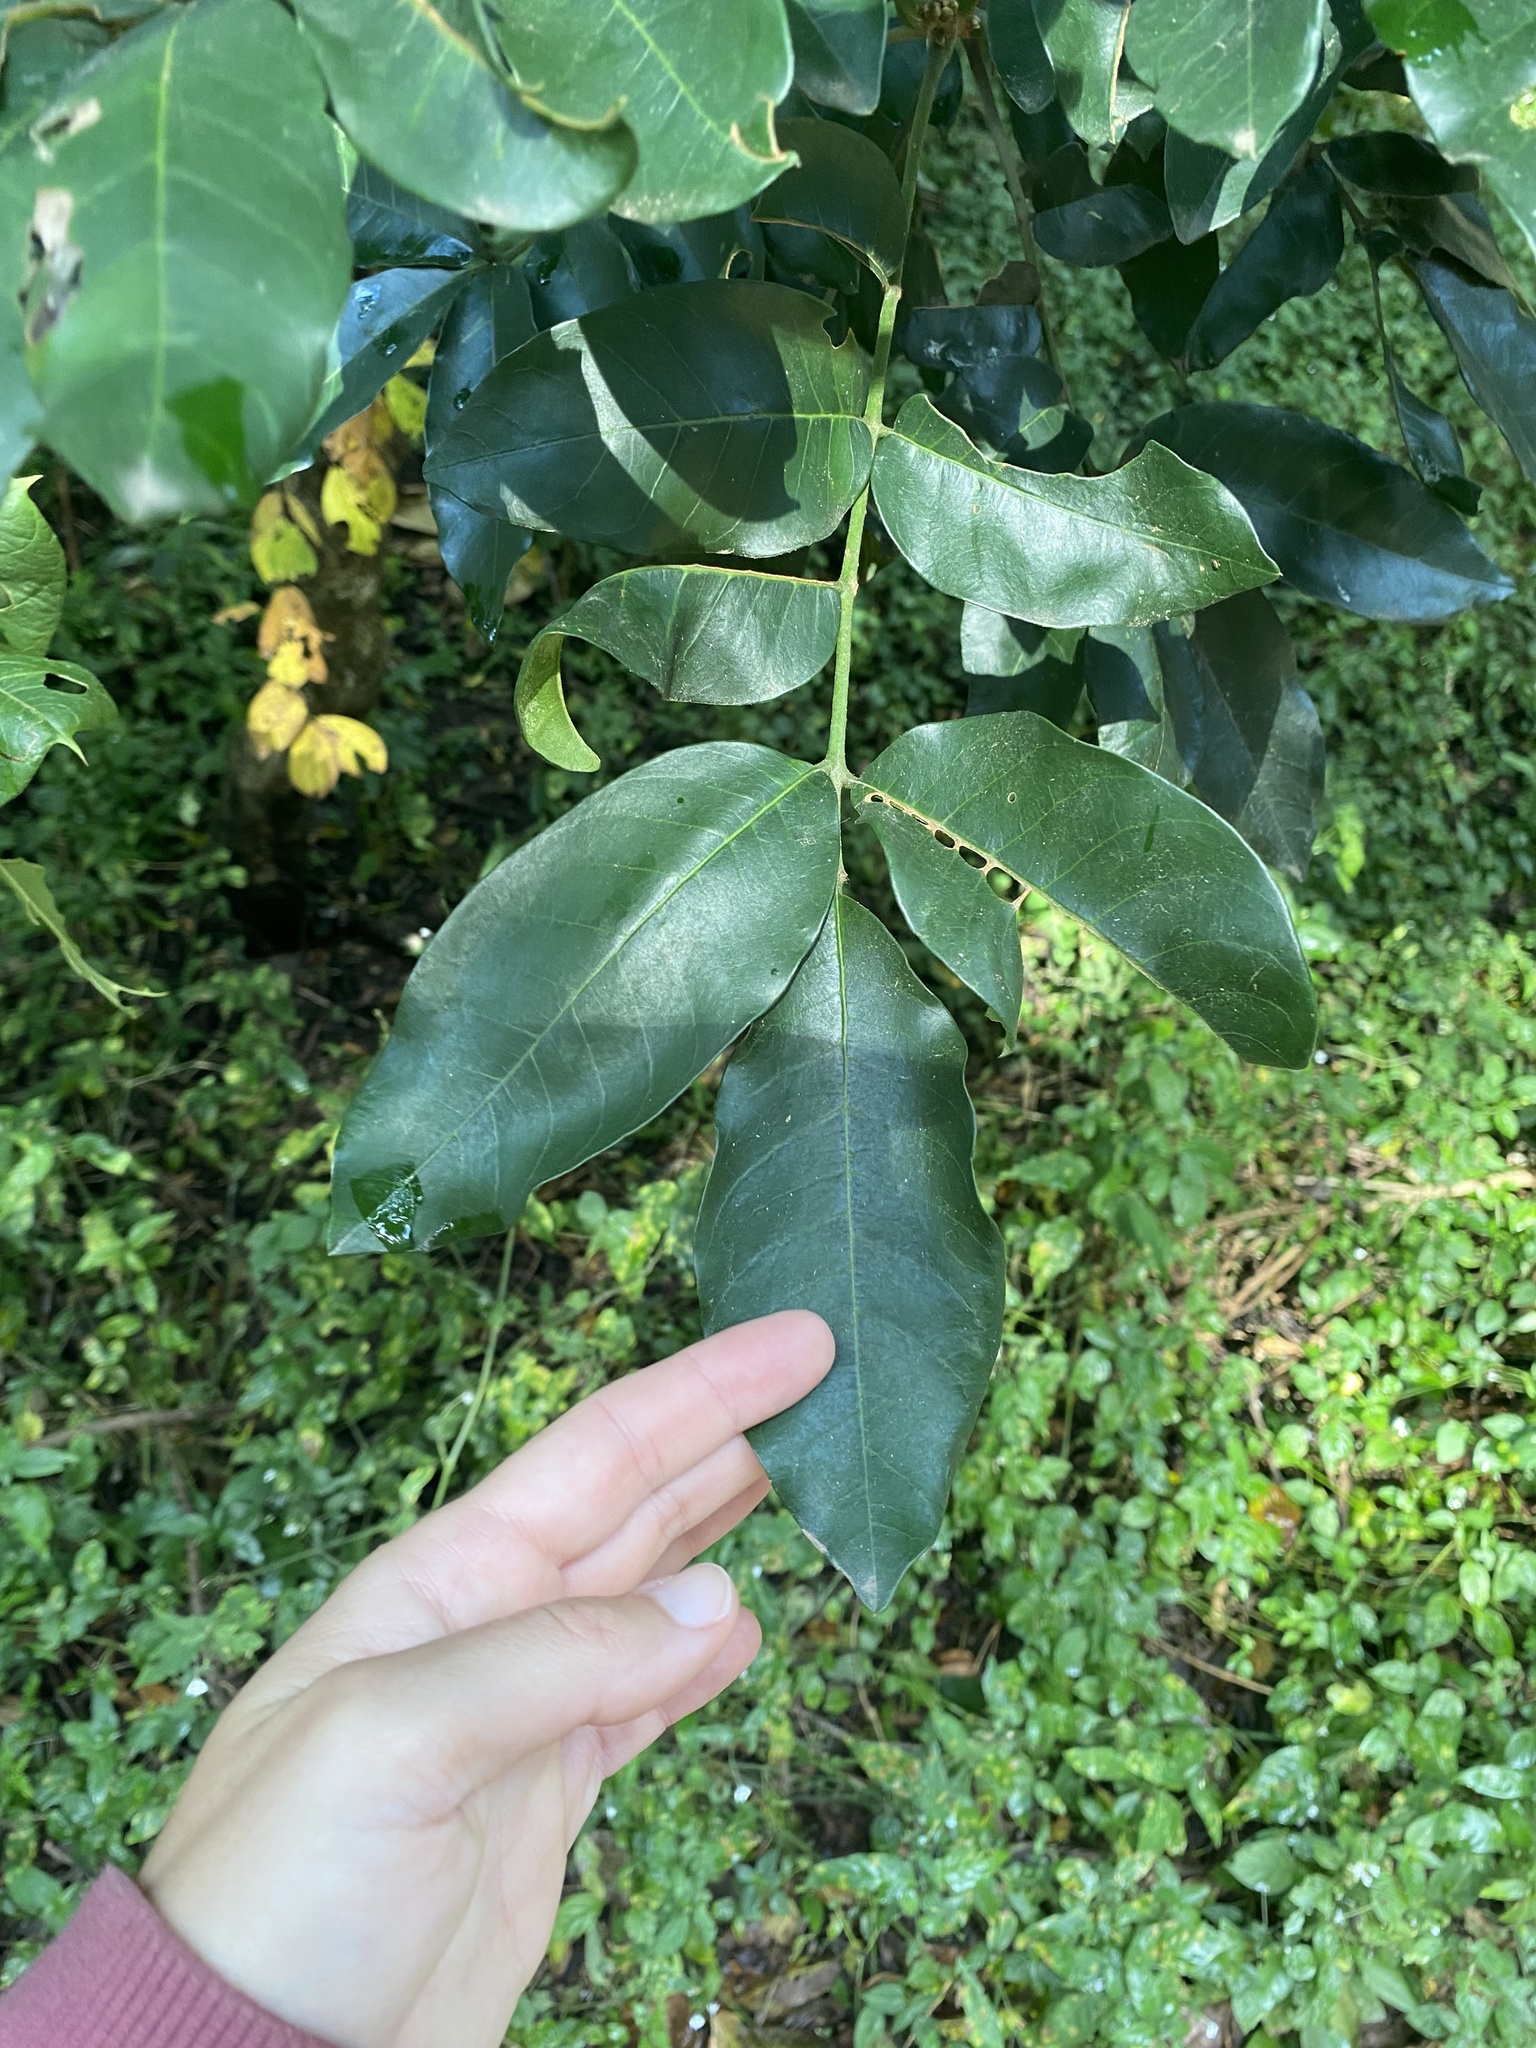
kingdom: Plantae
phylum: Tracheophyta
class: Magnoliopsida
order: Sapindales
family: Meliaceae
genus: Trichilia
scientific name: Trichilia emetica
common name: Christmas-bells
